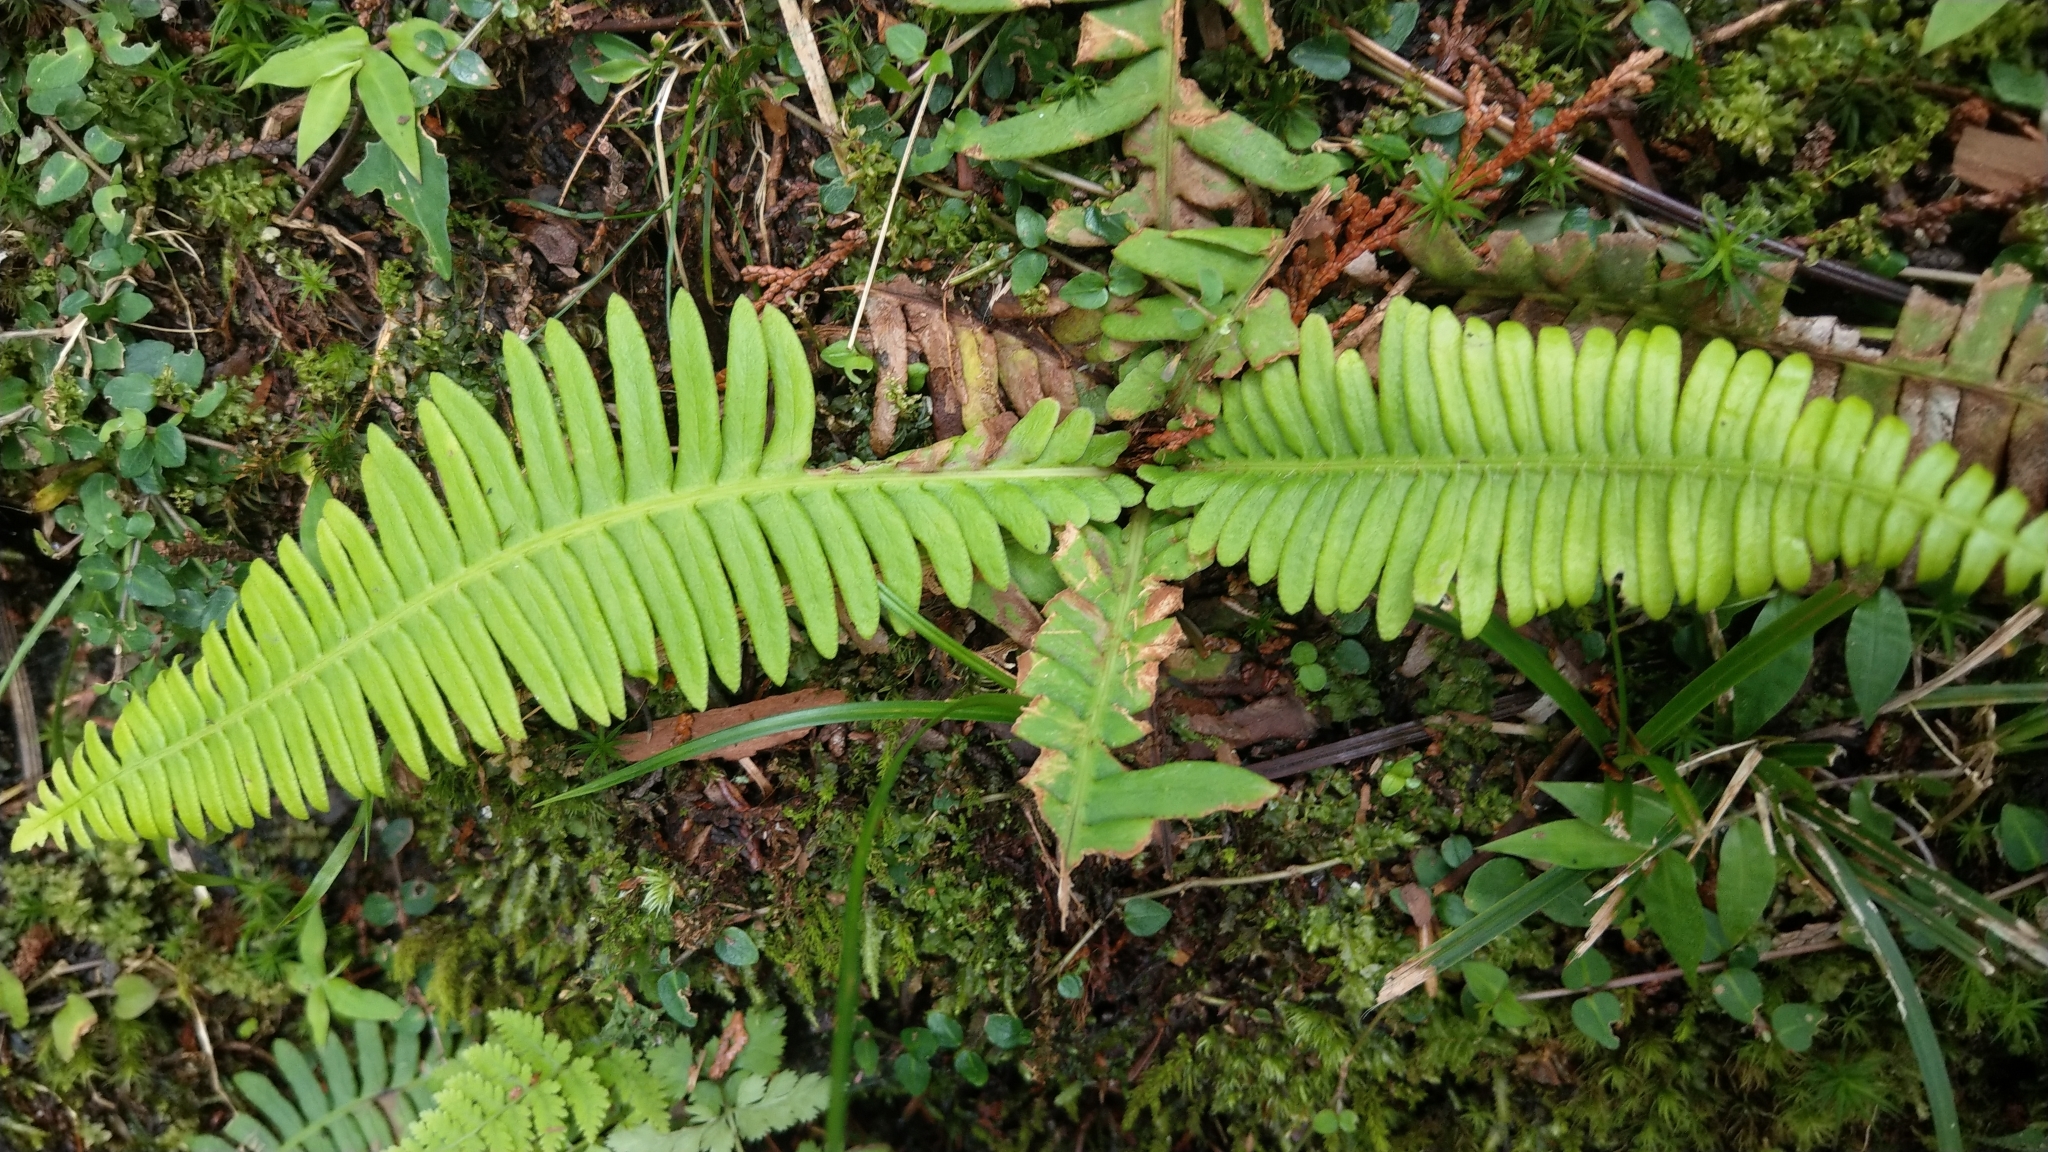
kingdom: Plantae
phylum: Tracheophyta
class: Polypodiopsida
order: Polypodiales
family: Blechnaceae
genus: Spicantopsis
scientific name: Spicantopsis niponica
